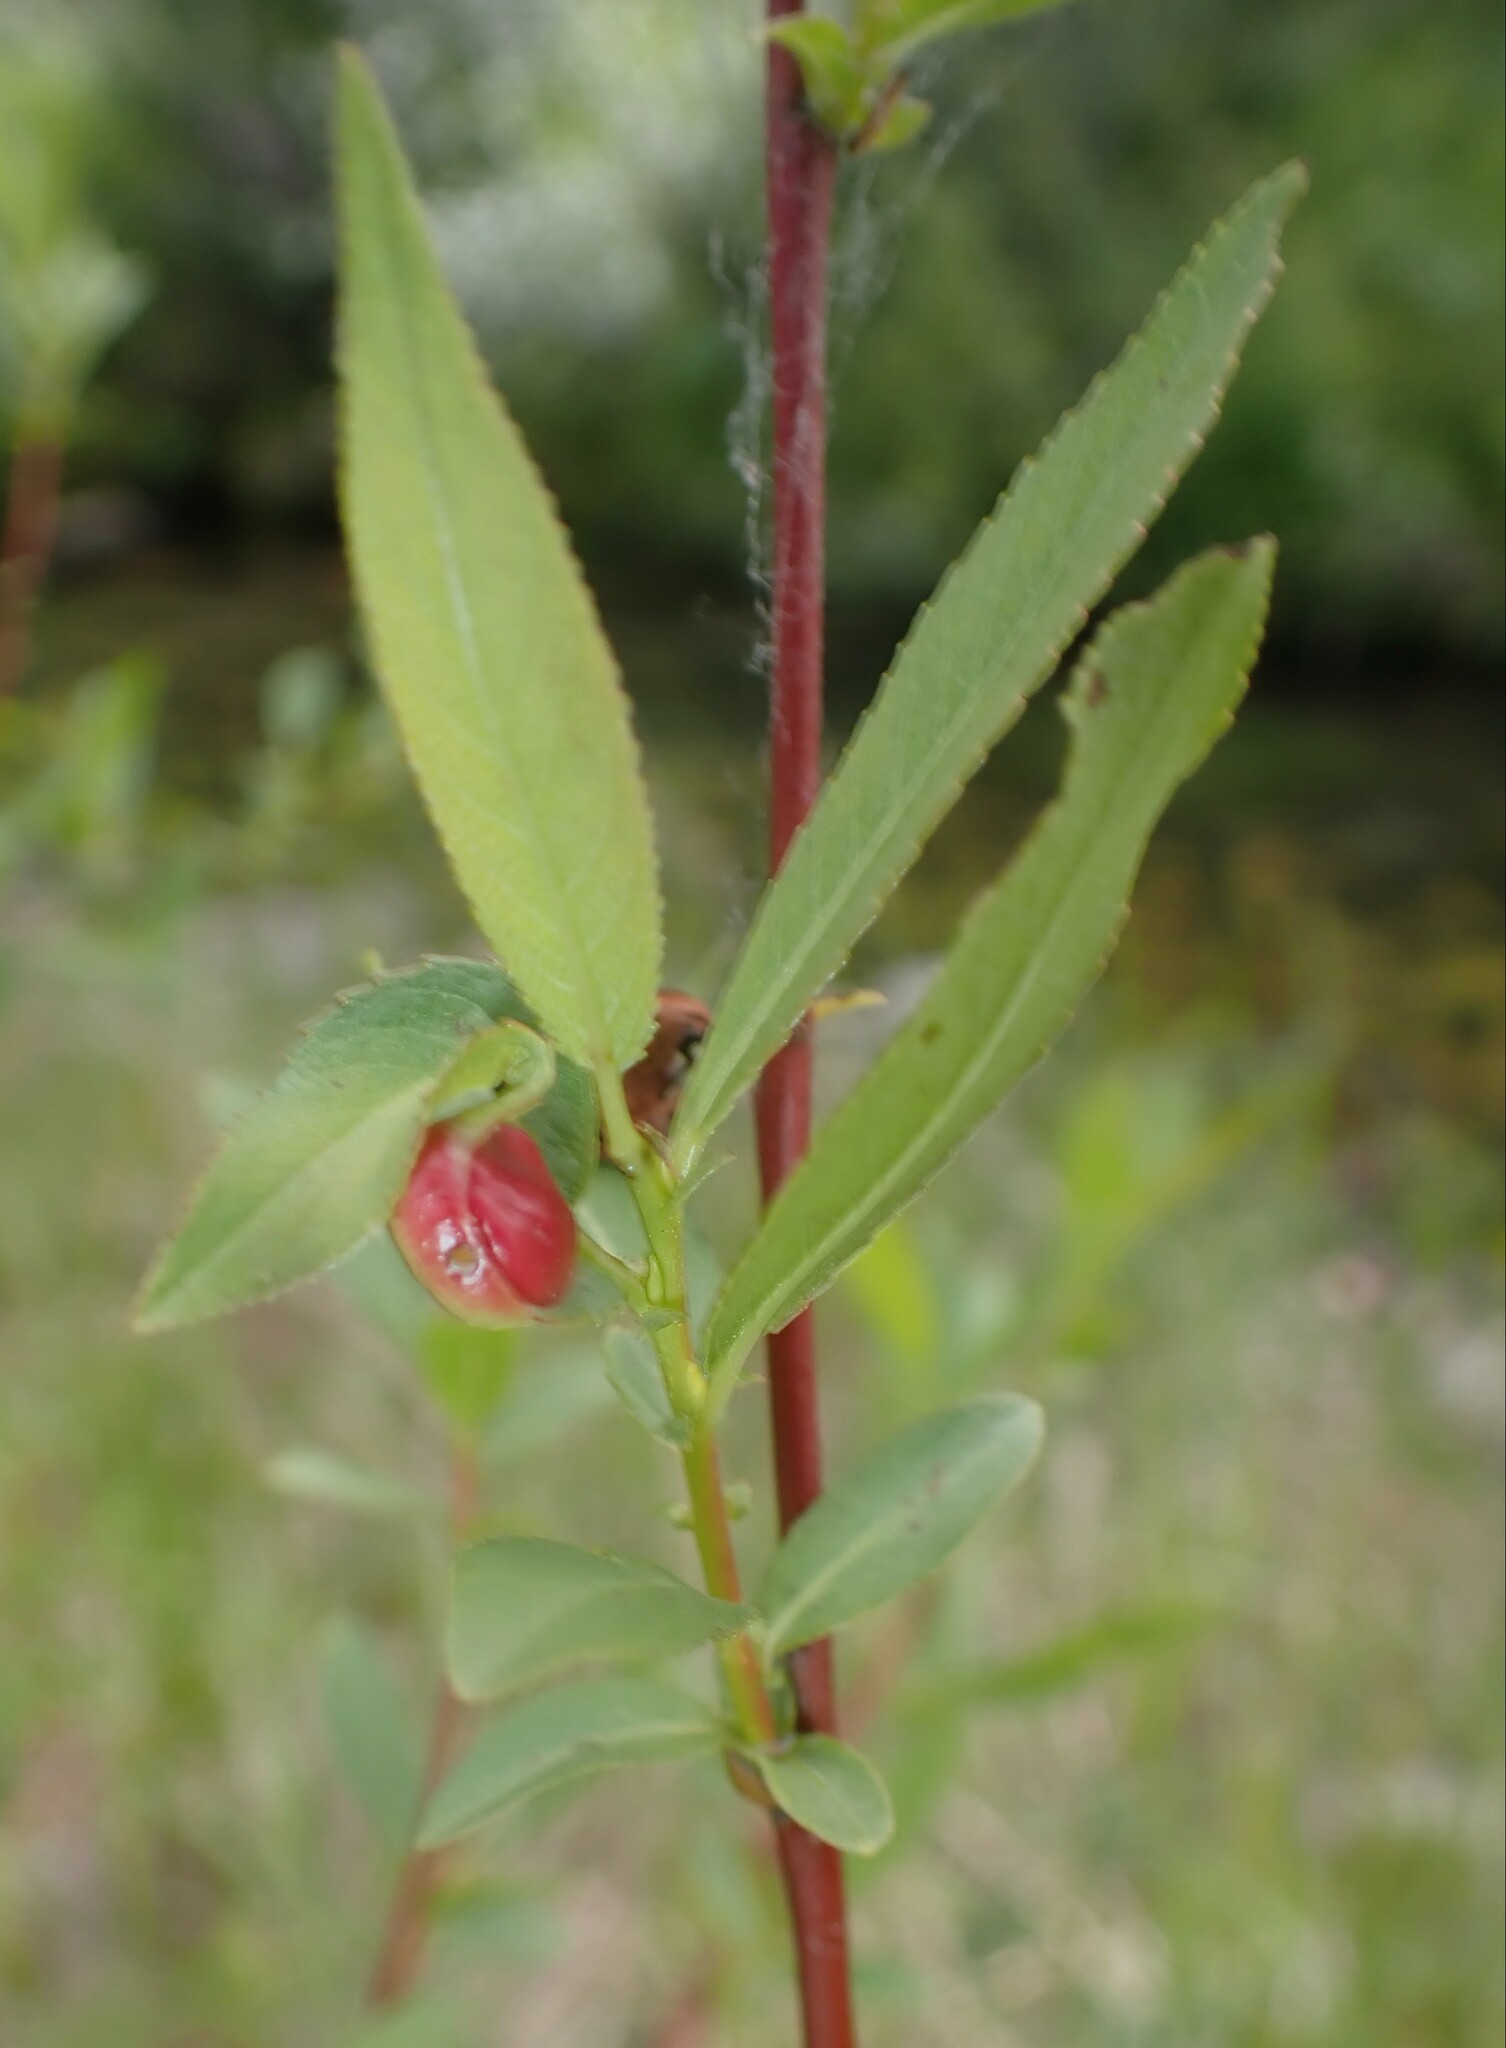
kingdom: Animalia
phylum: Arthropoda
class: Insecta
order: Hymenoptera
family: Tenthredinidae
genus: Euura
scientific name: Euura
